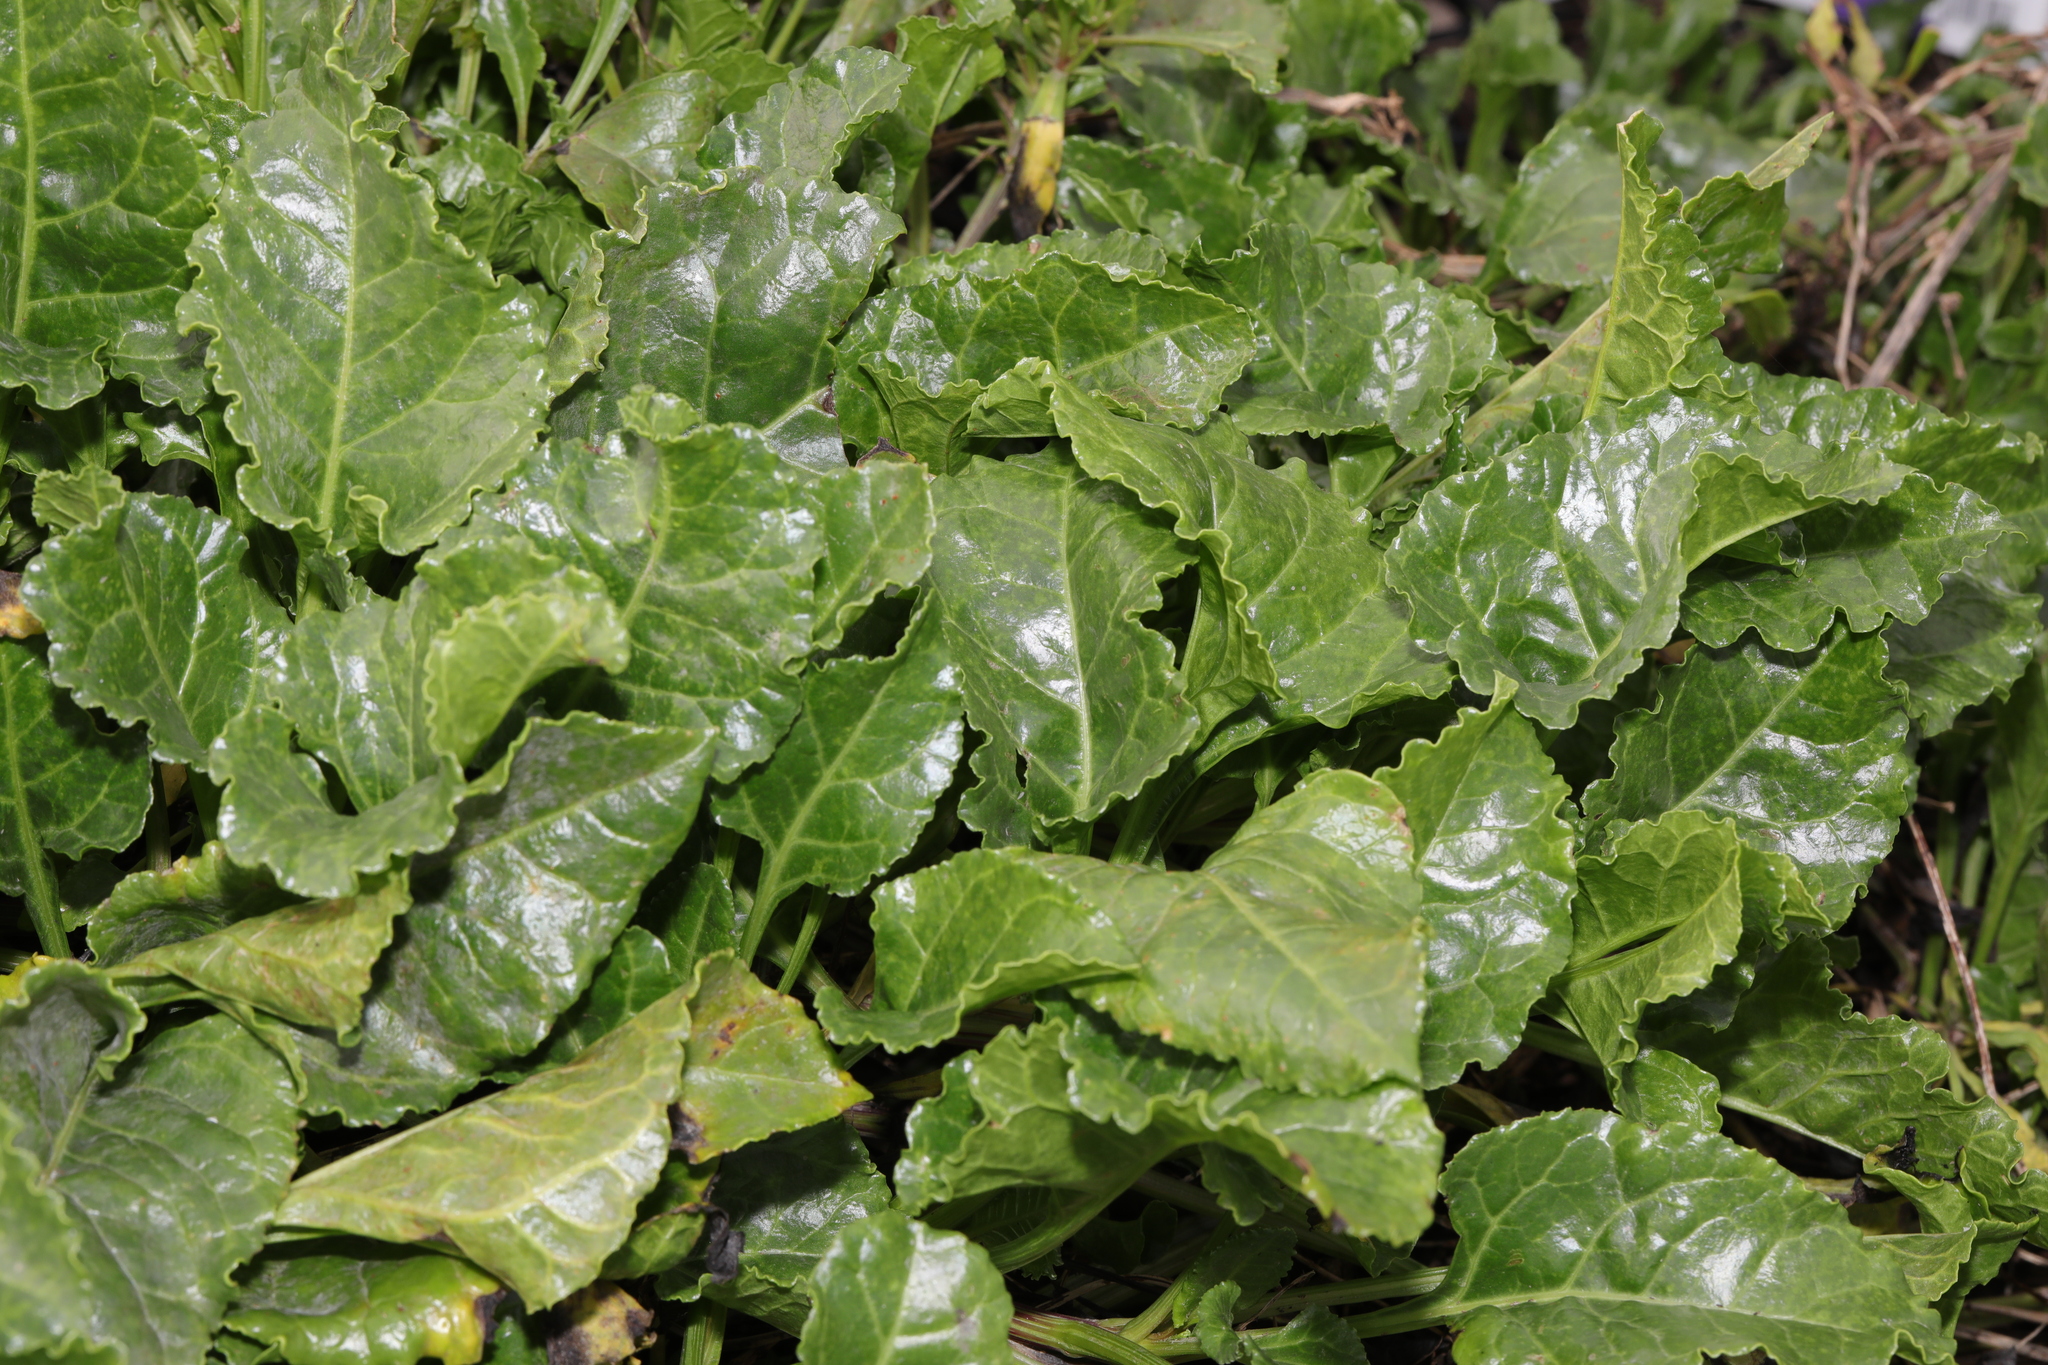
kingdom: Plantae
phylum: Tracheophyta
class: Magnoliopsida
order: Caryophyllales
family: Amaranthaceae
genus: Beta
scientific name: Beta vulgaris
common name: Beet
